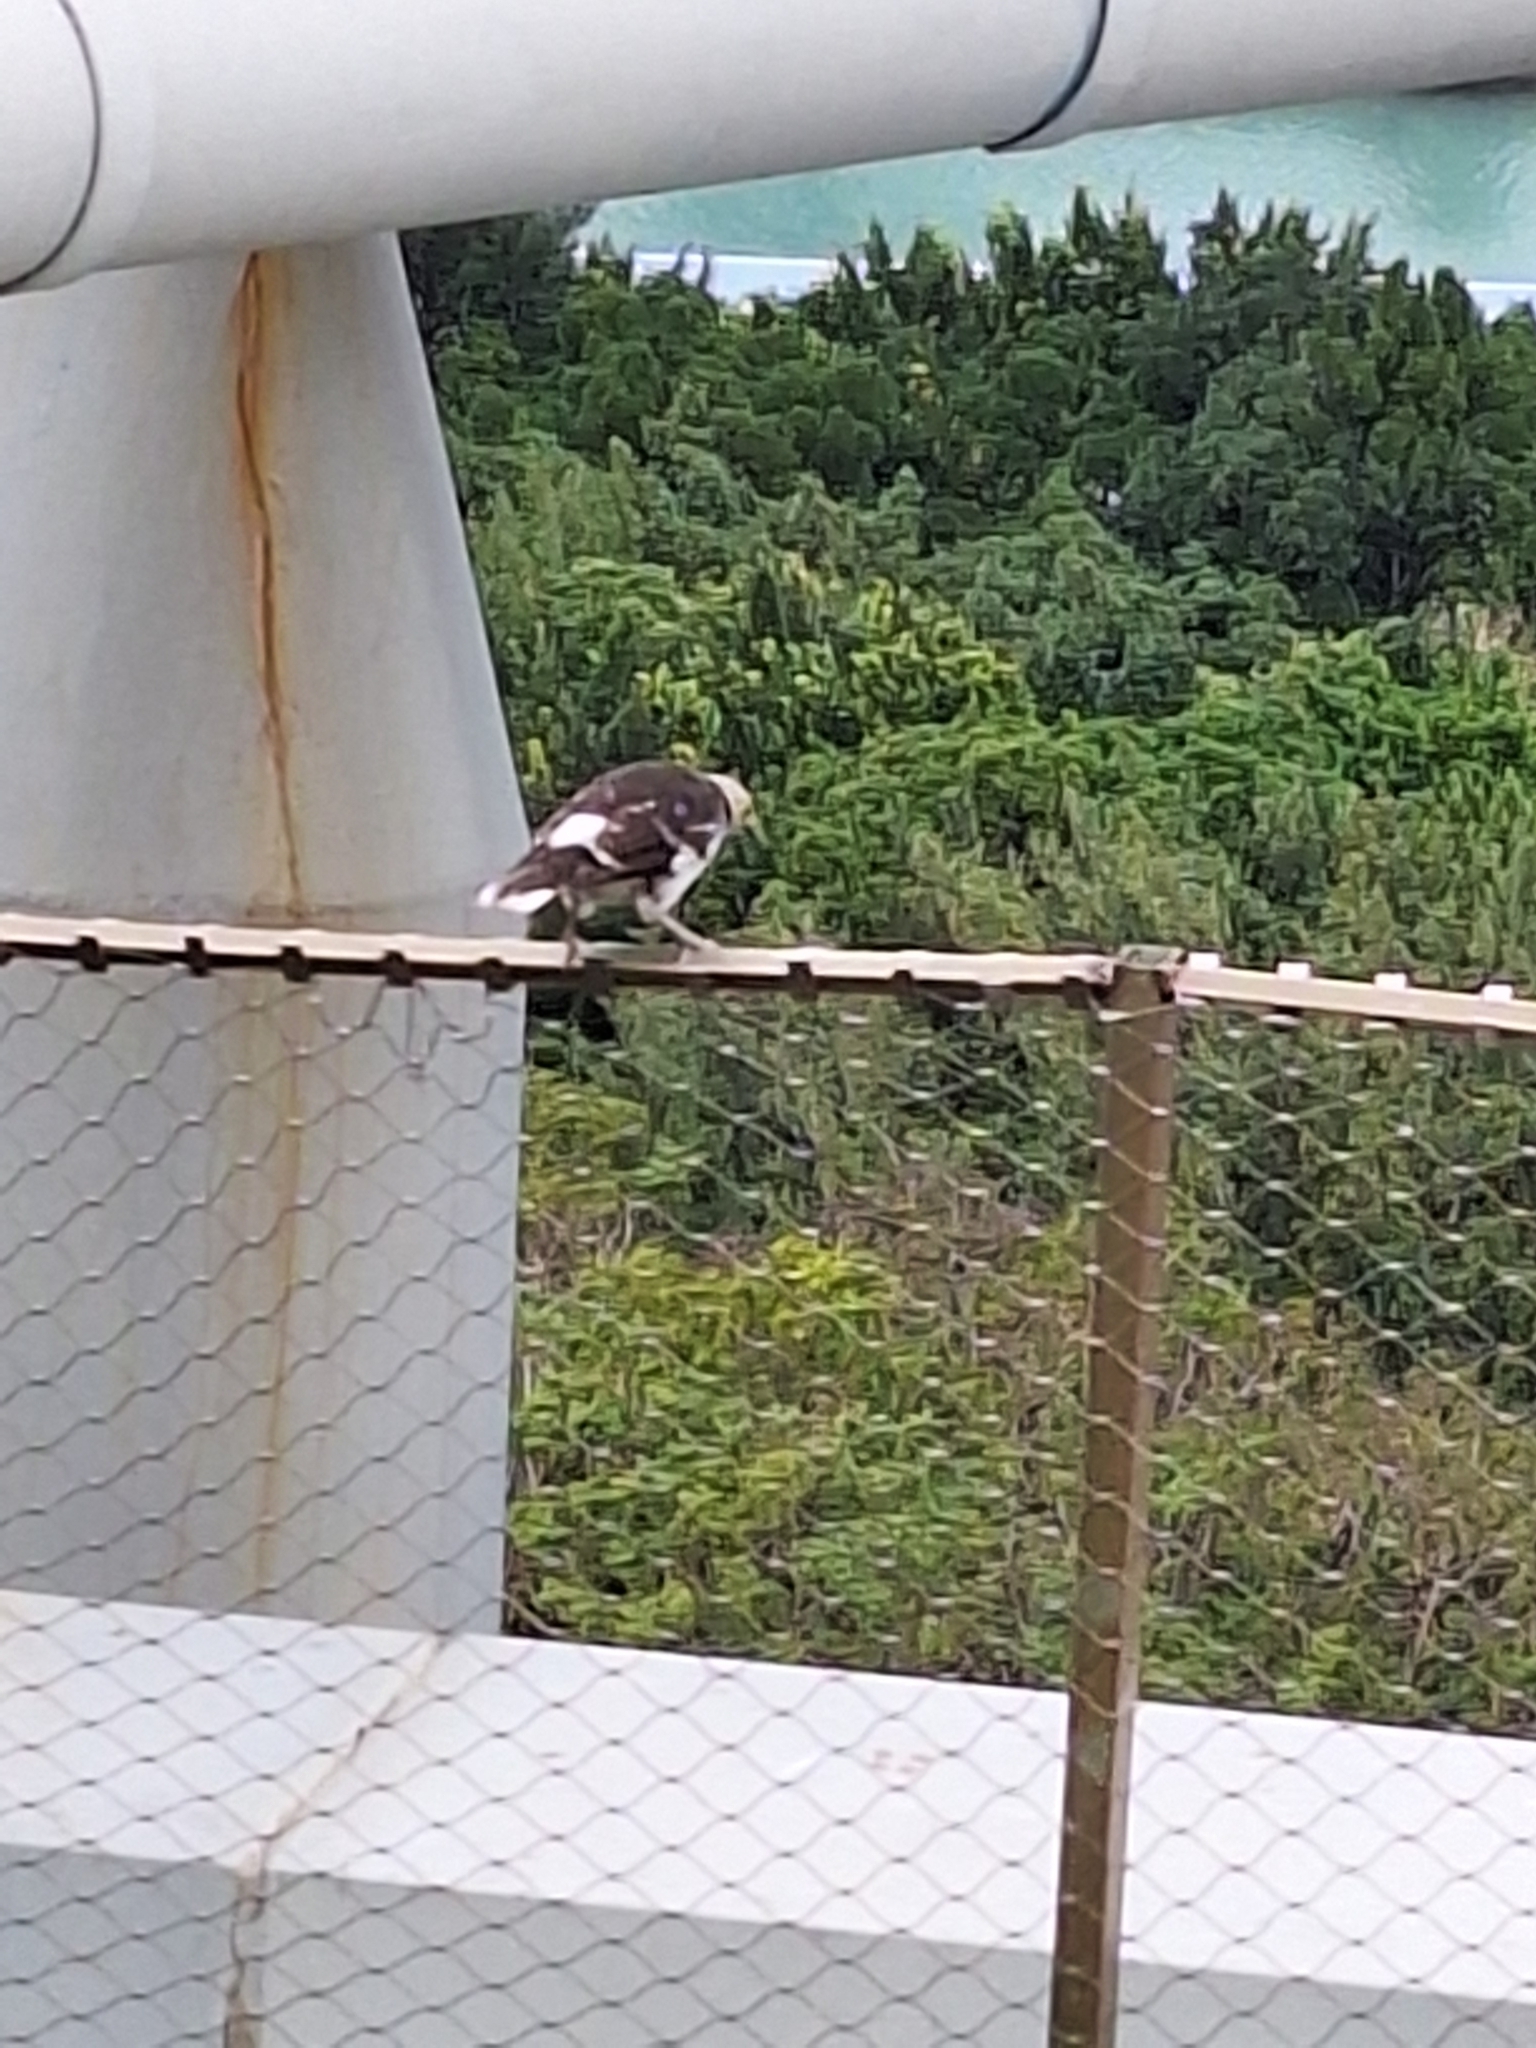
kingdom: Animalia
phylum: Chordata
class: Aves
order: Passeriformes
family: Sturnidae
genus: Gracupica
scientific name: Gracupica nigricollis
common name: Black-collared starling
